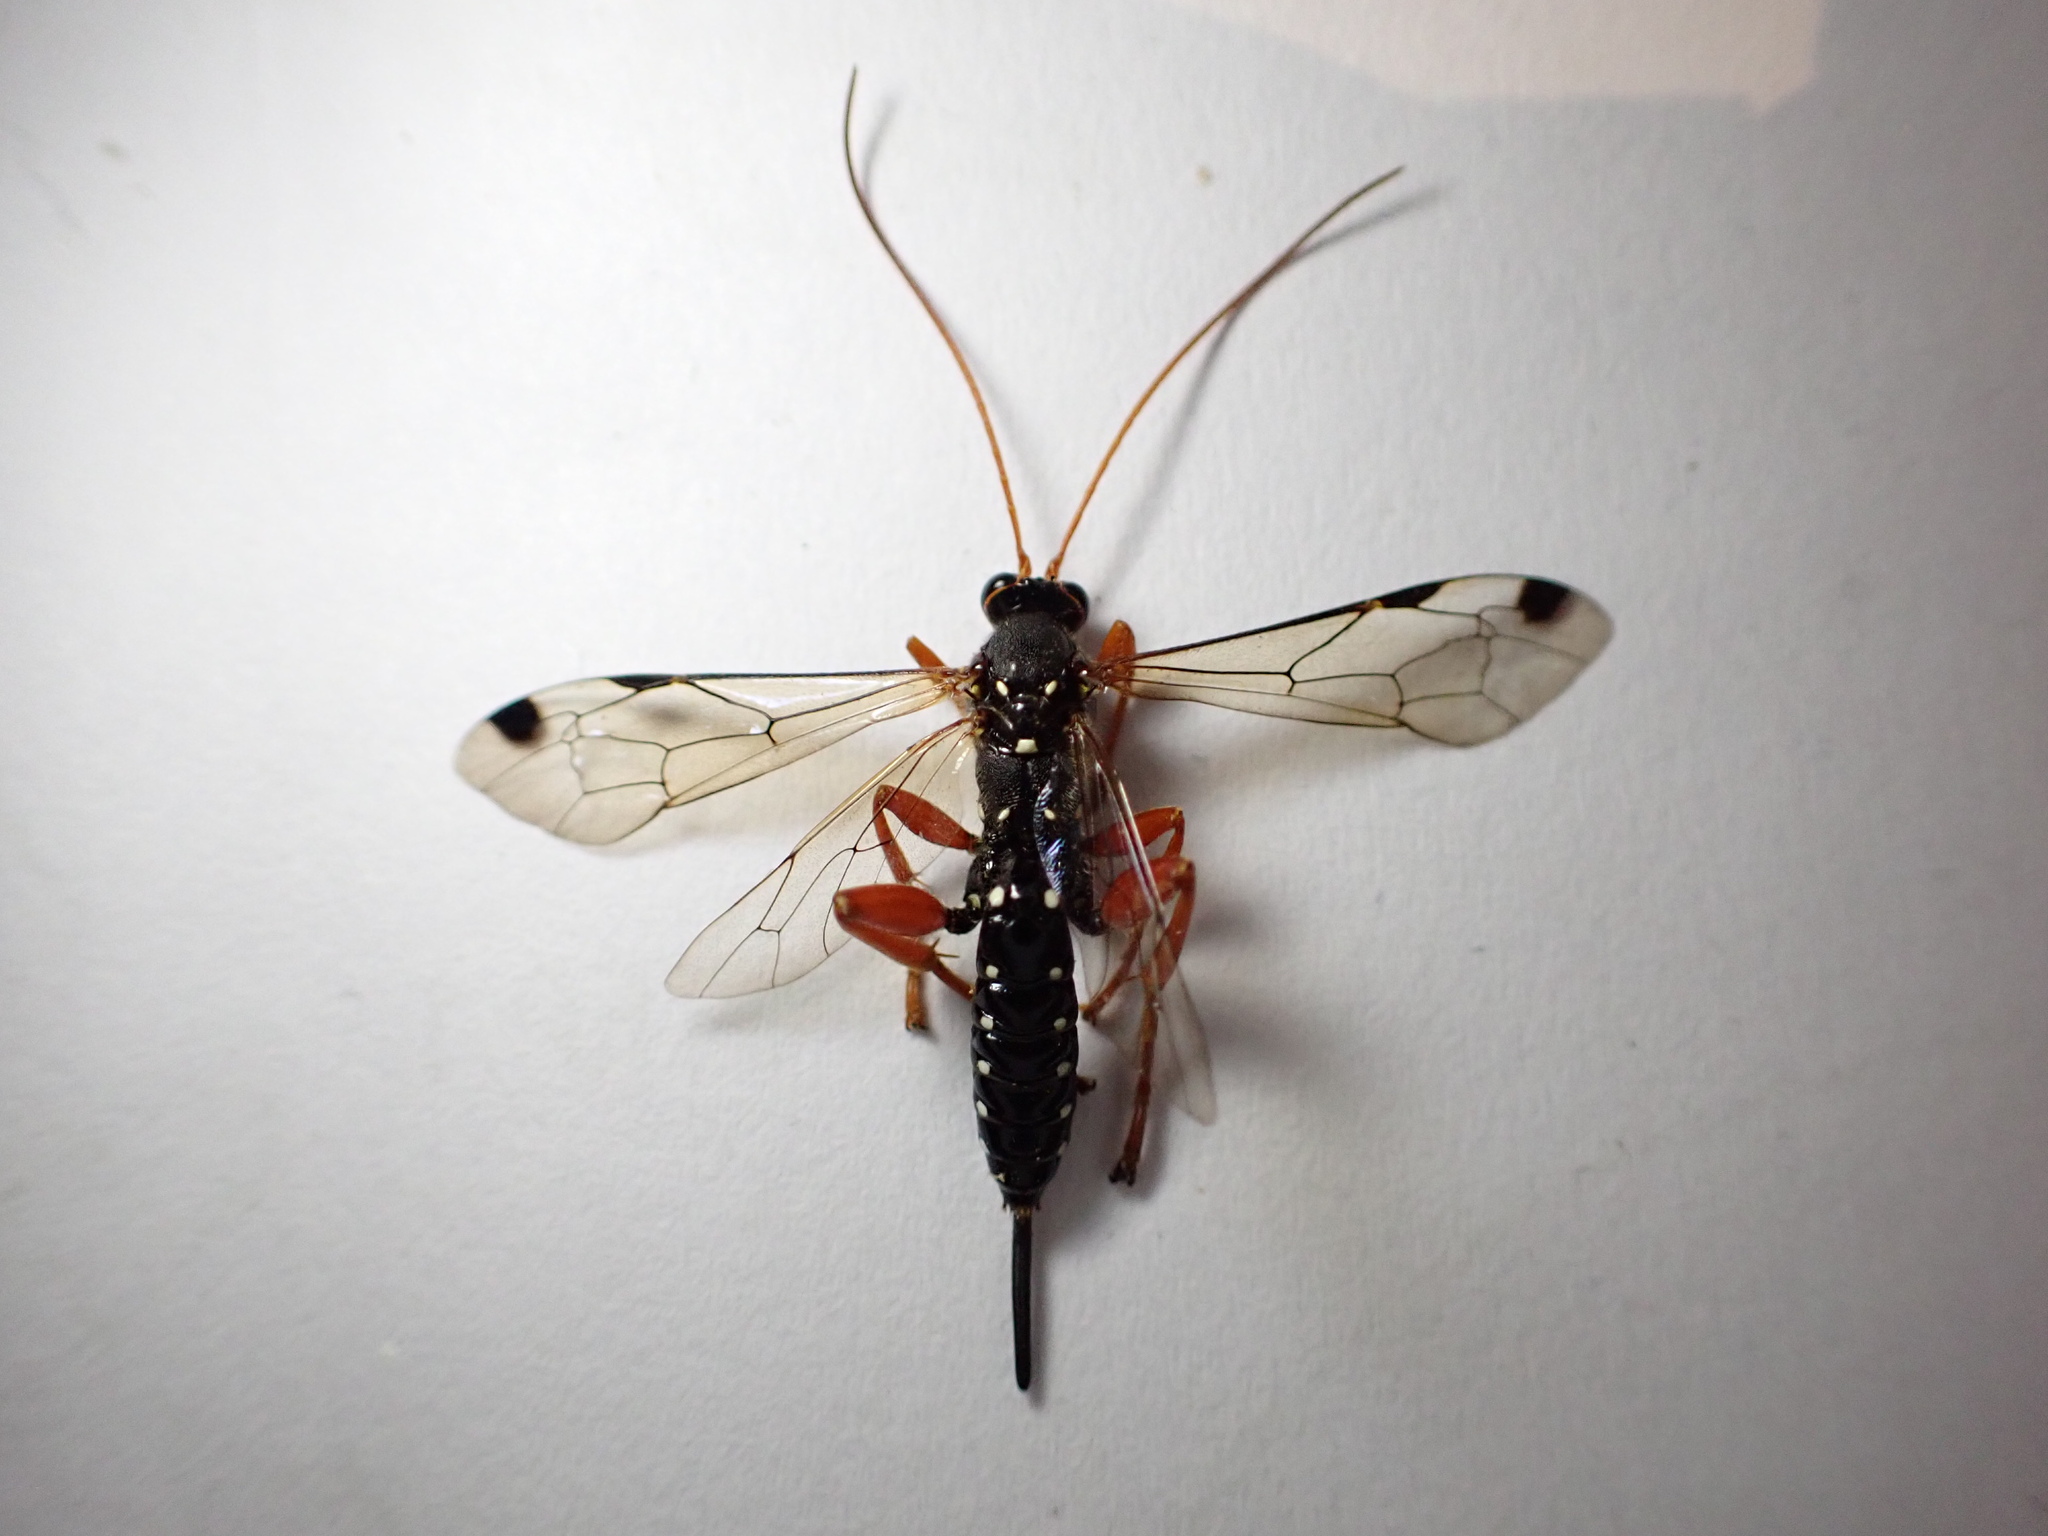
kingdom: Animalia
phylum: Arthropoda
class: Insecta
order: Hymenoptera
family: Ichneumonidae
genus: Echthromorpha
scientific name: Echthromorpha intricatoria
